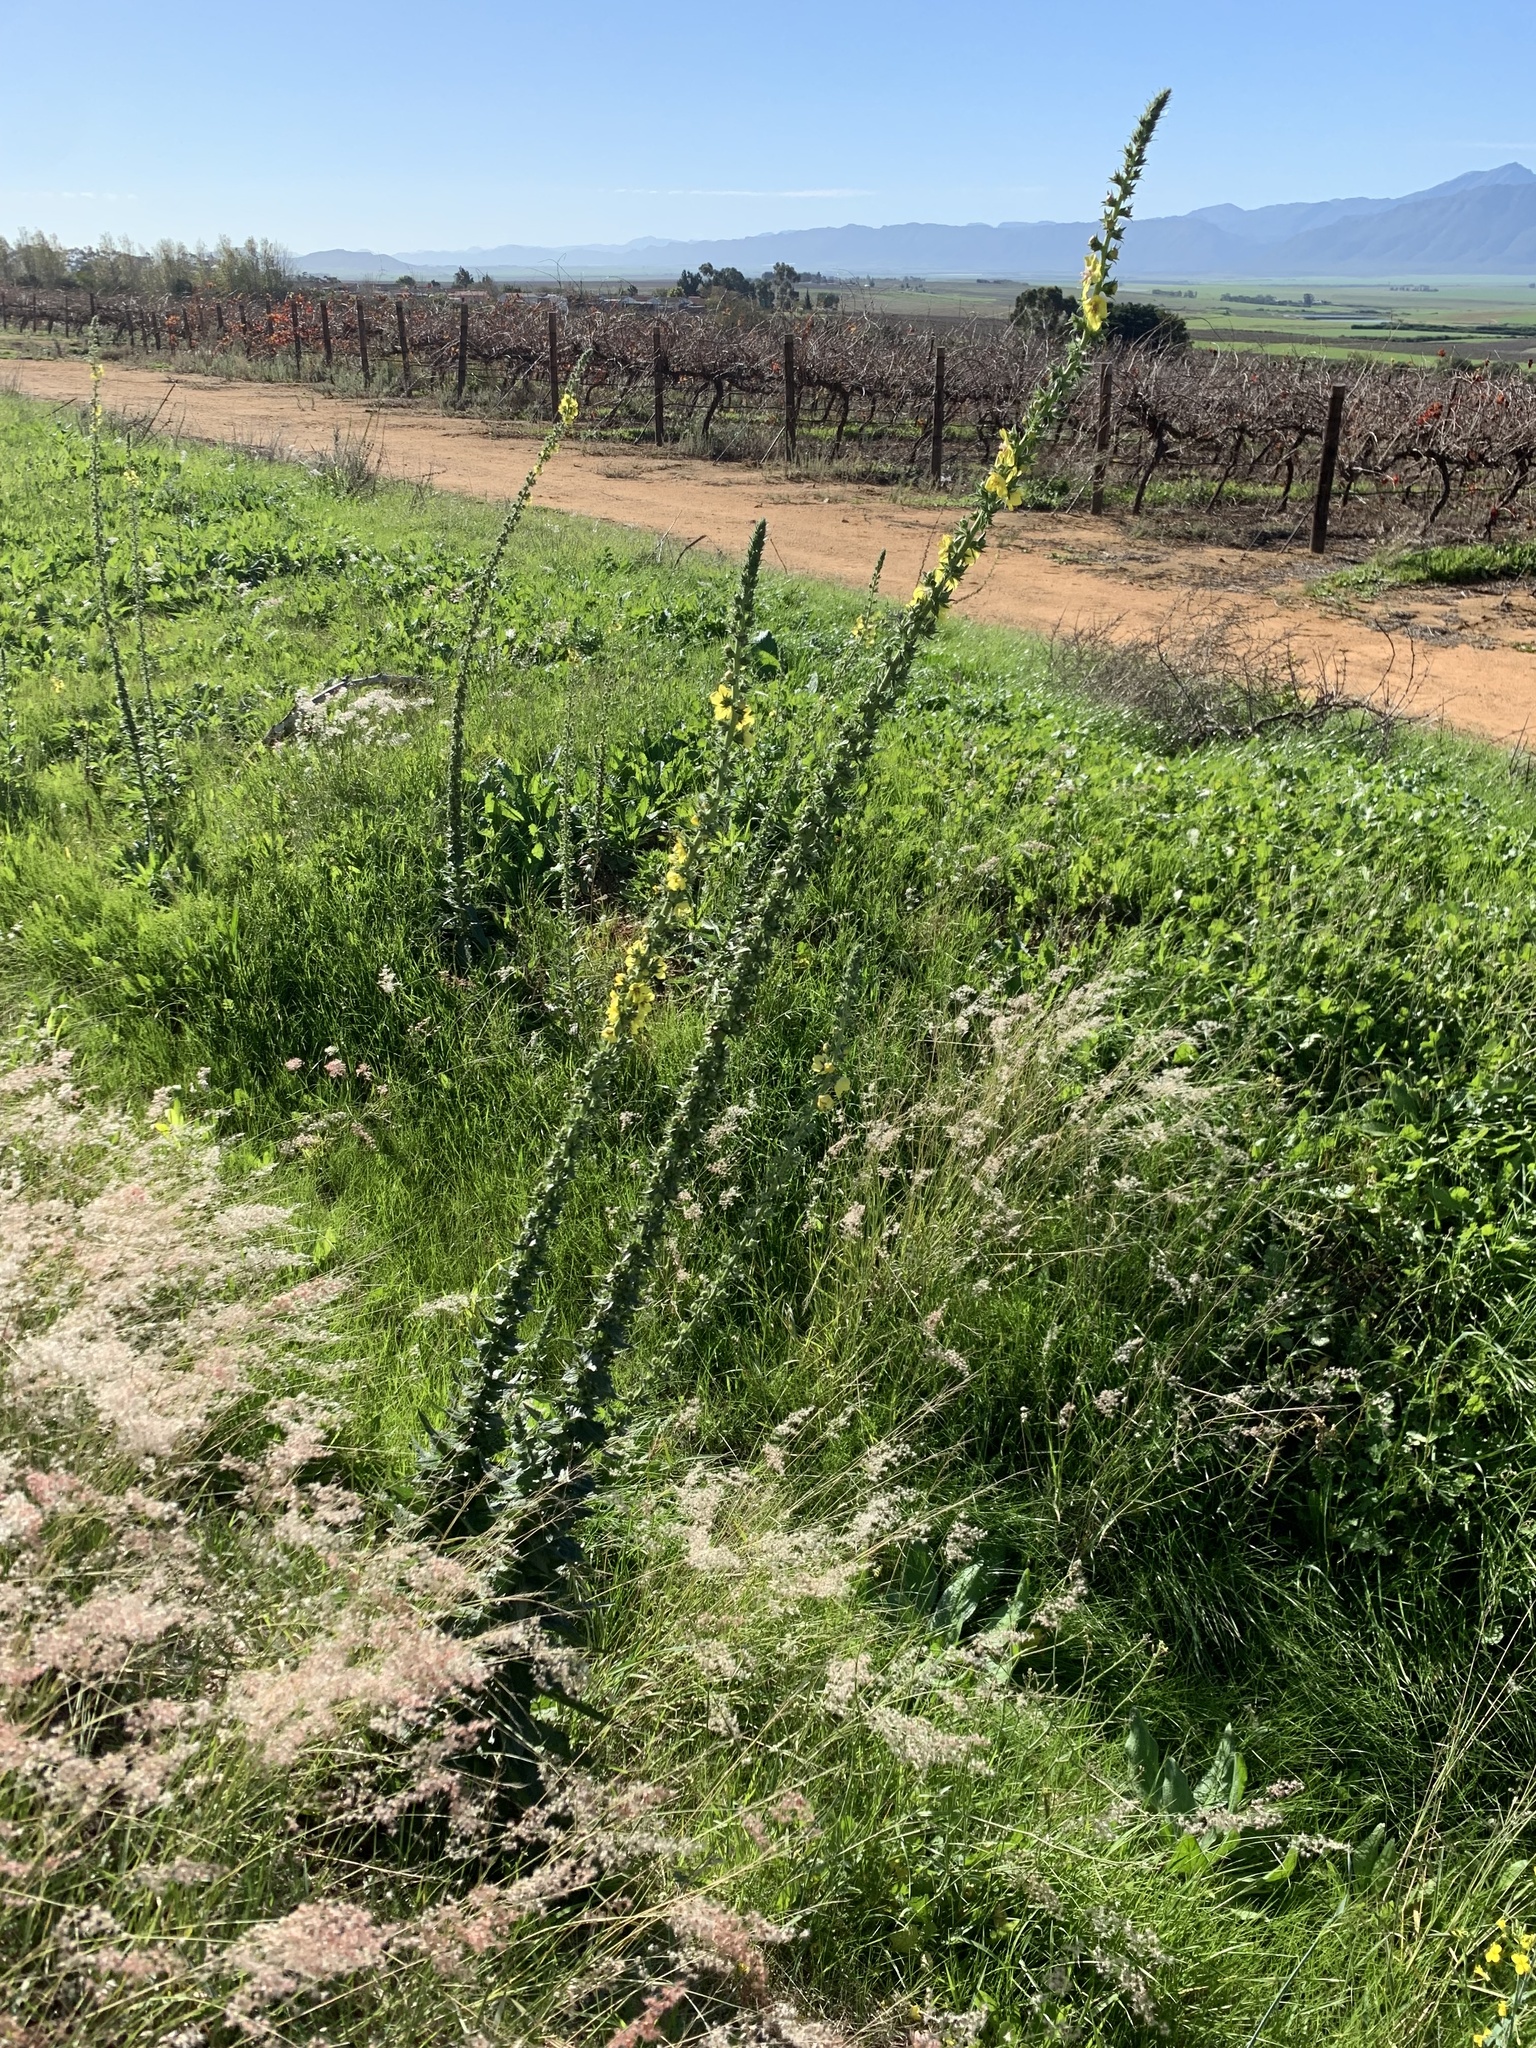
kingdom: Plantae
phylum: Tracheophyta
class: Magnoliopsida
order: Lamiales
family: Scrophulariaceae
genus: Verbascum
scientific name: Verbascum virgatum
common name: Twiggy mullein
